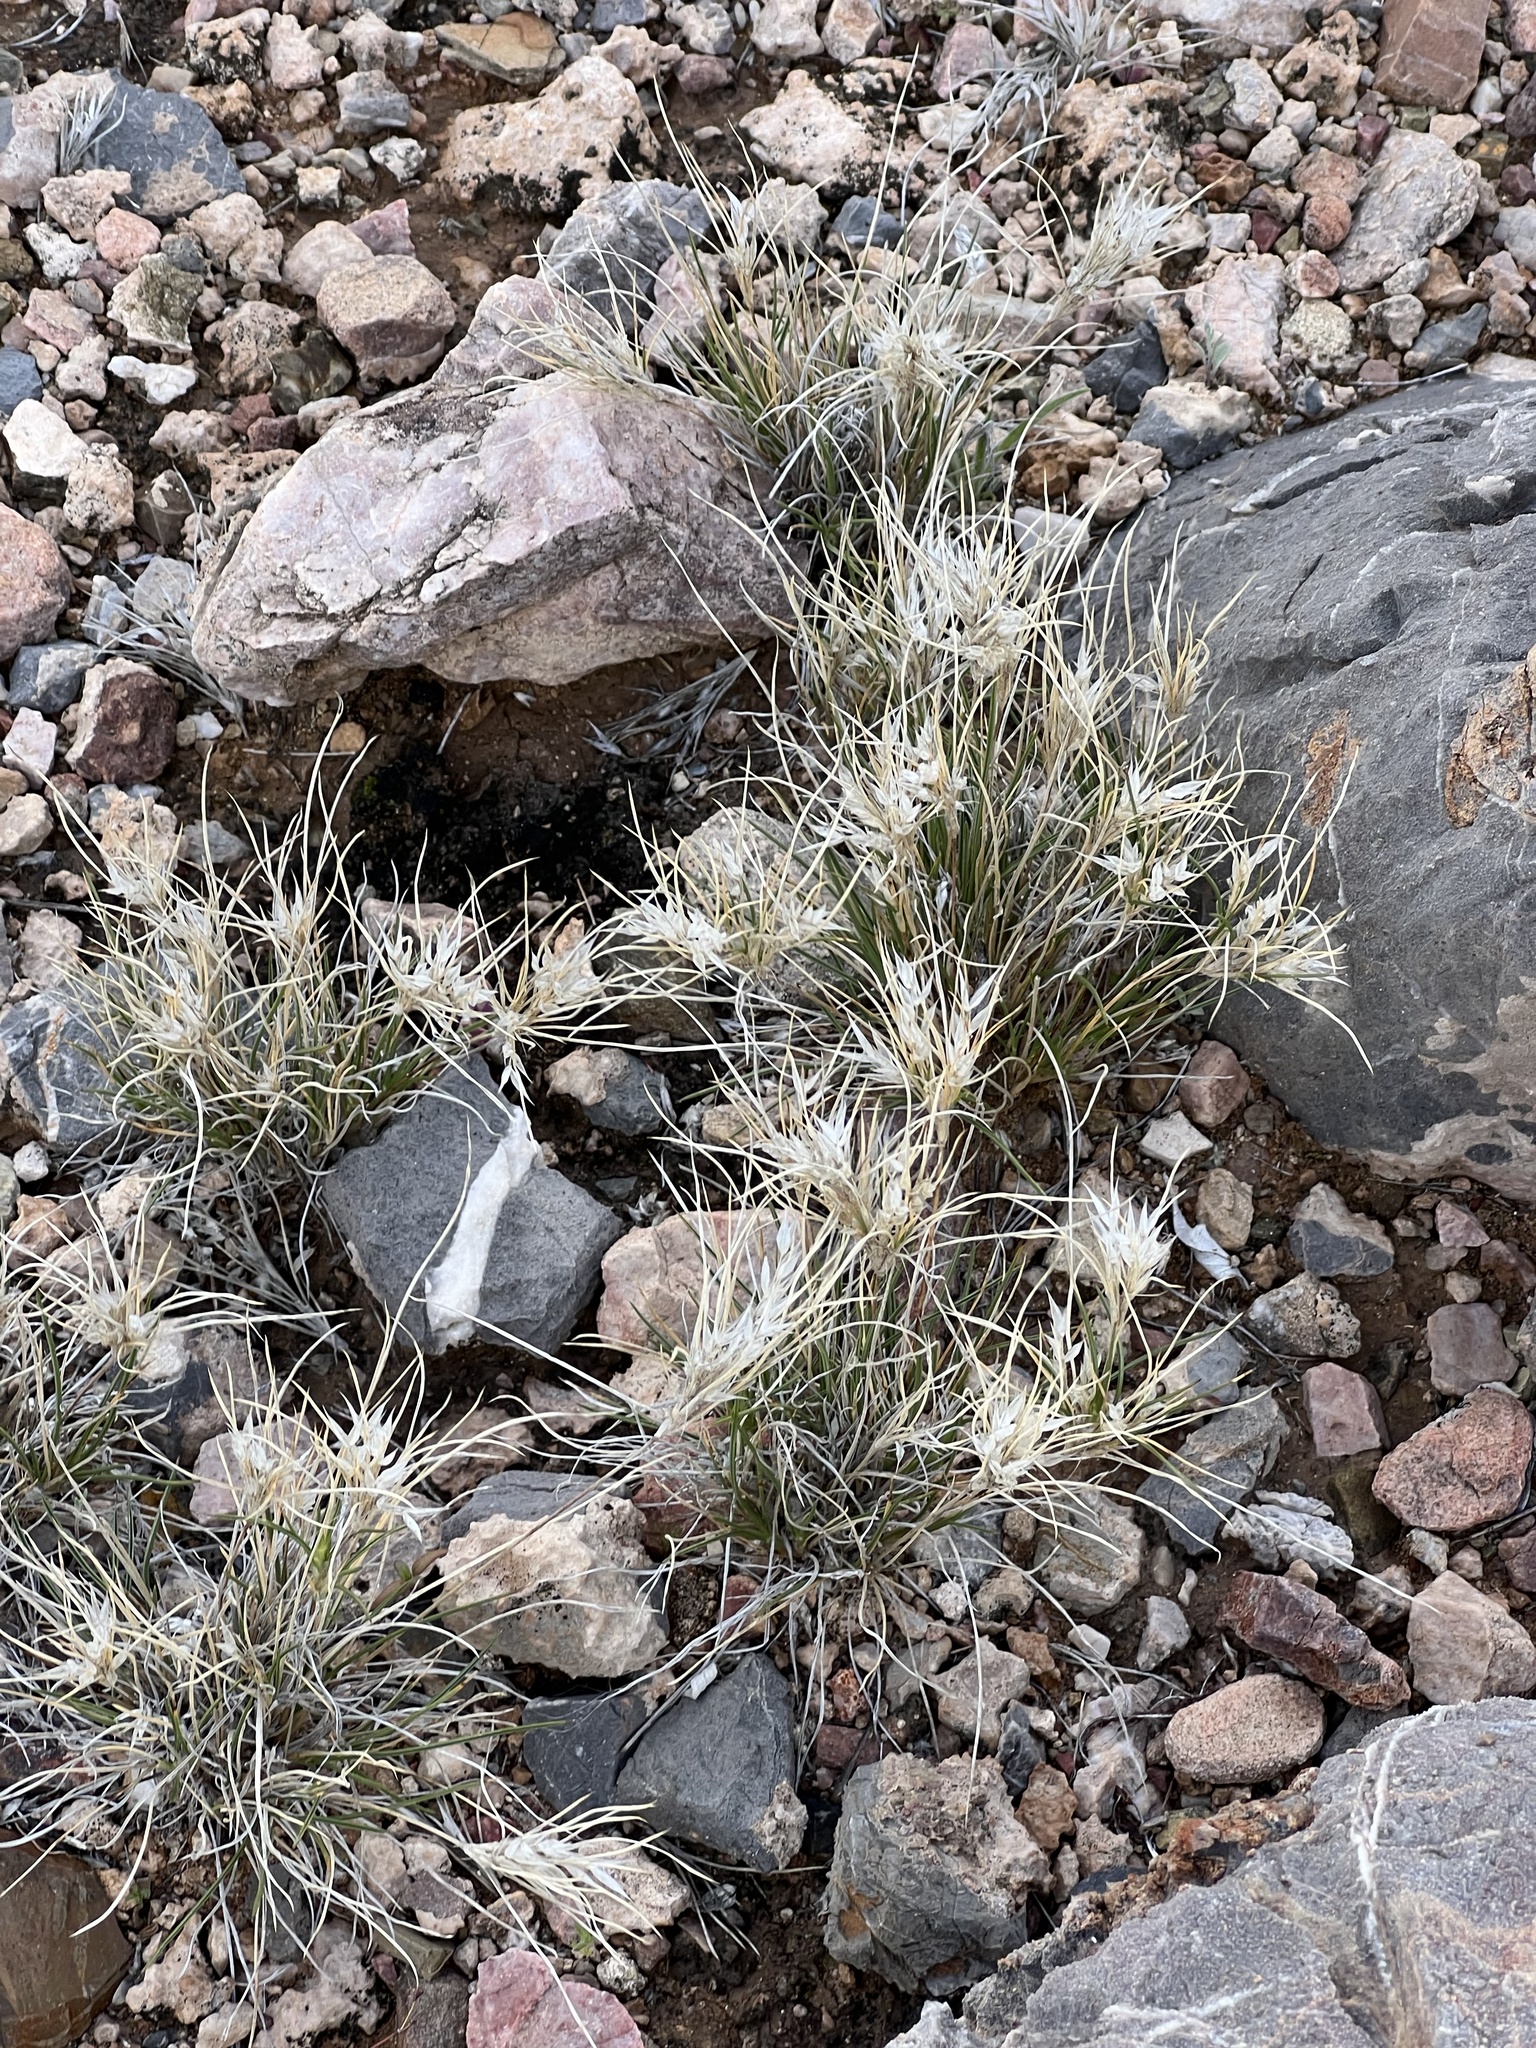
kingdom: Plantae
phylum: Tracheophyta
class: Liliopsida
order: Poales
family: Poaceae
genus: Dasyochloa
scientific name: Dasyochloa pulchella
